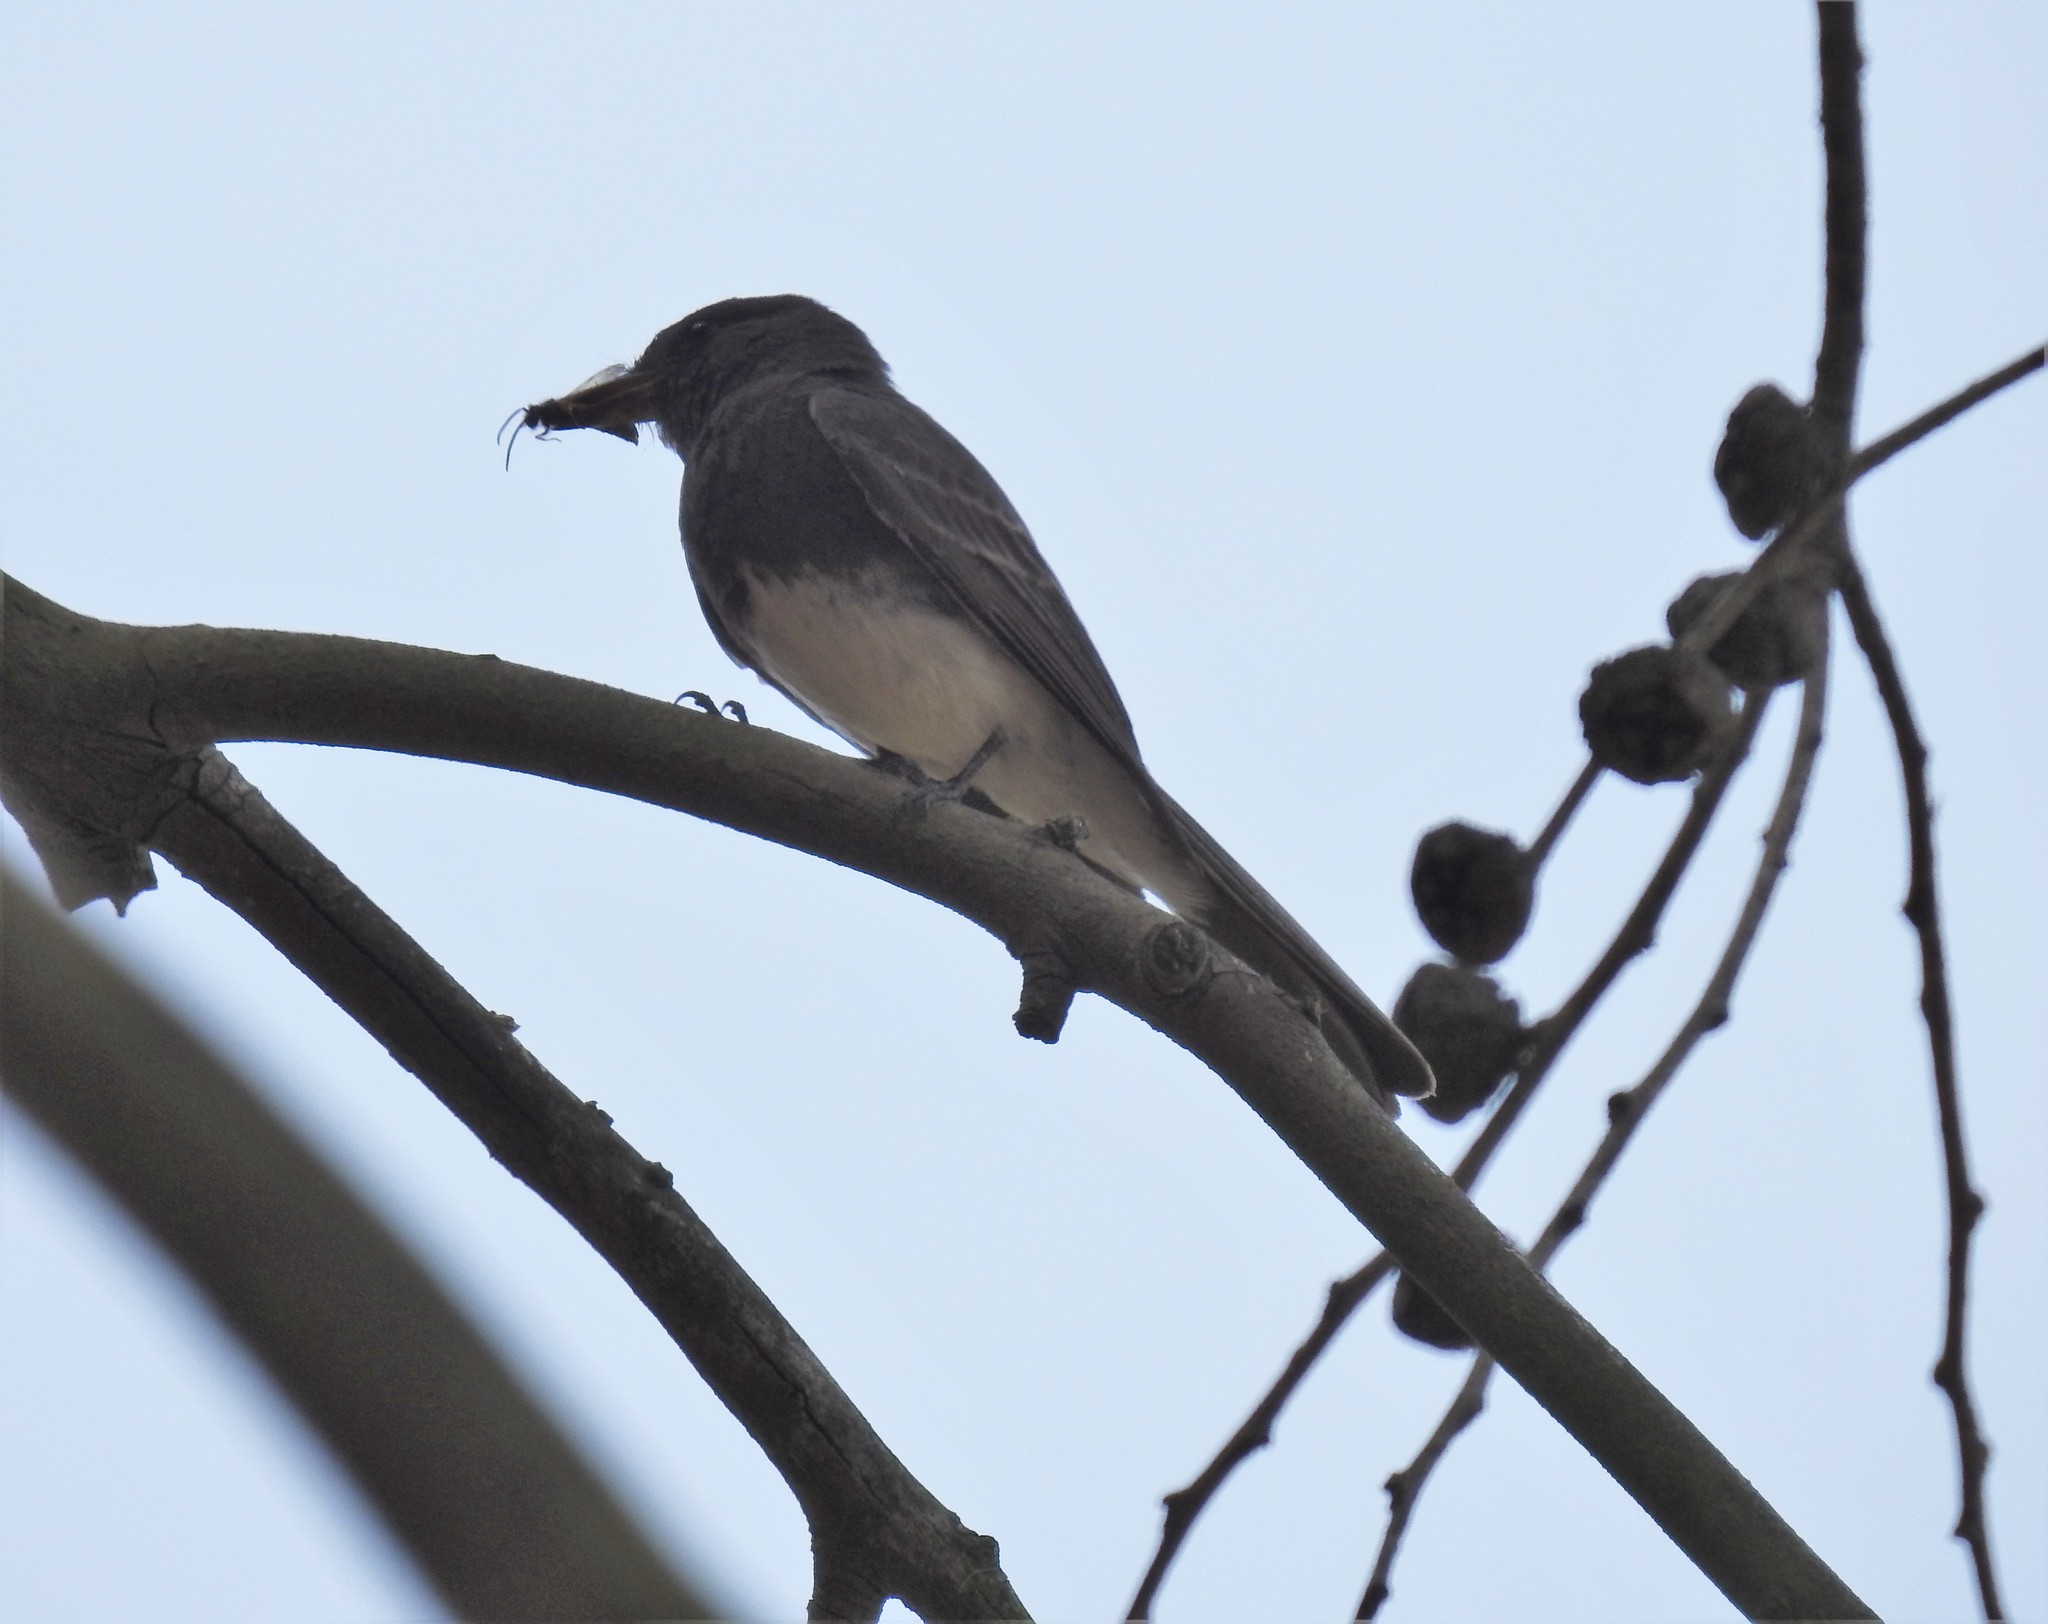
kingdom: Animalia
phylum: Chordata
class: Aves
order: Passeriformes
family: Tyrannidae
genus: Sayornis
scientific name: Sayornis nigricans
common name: Black phoebe
